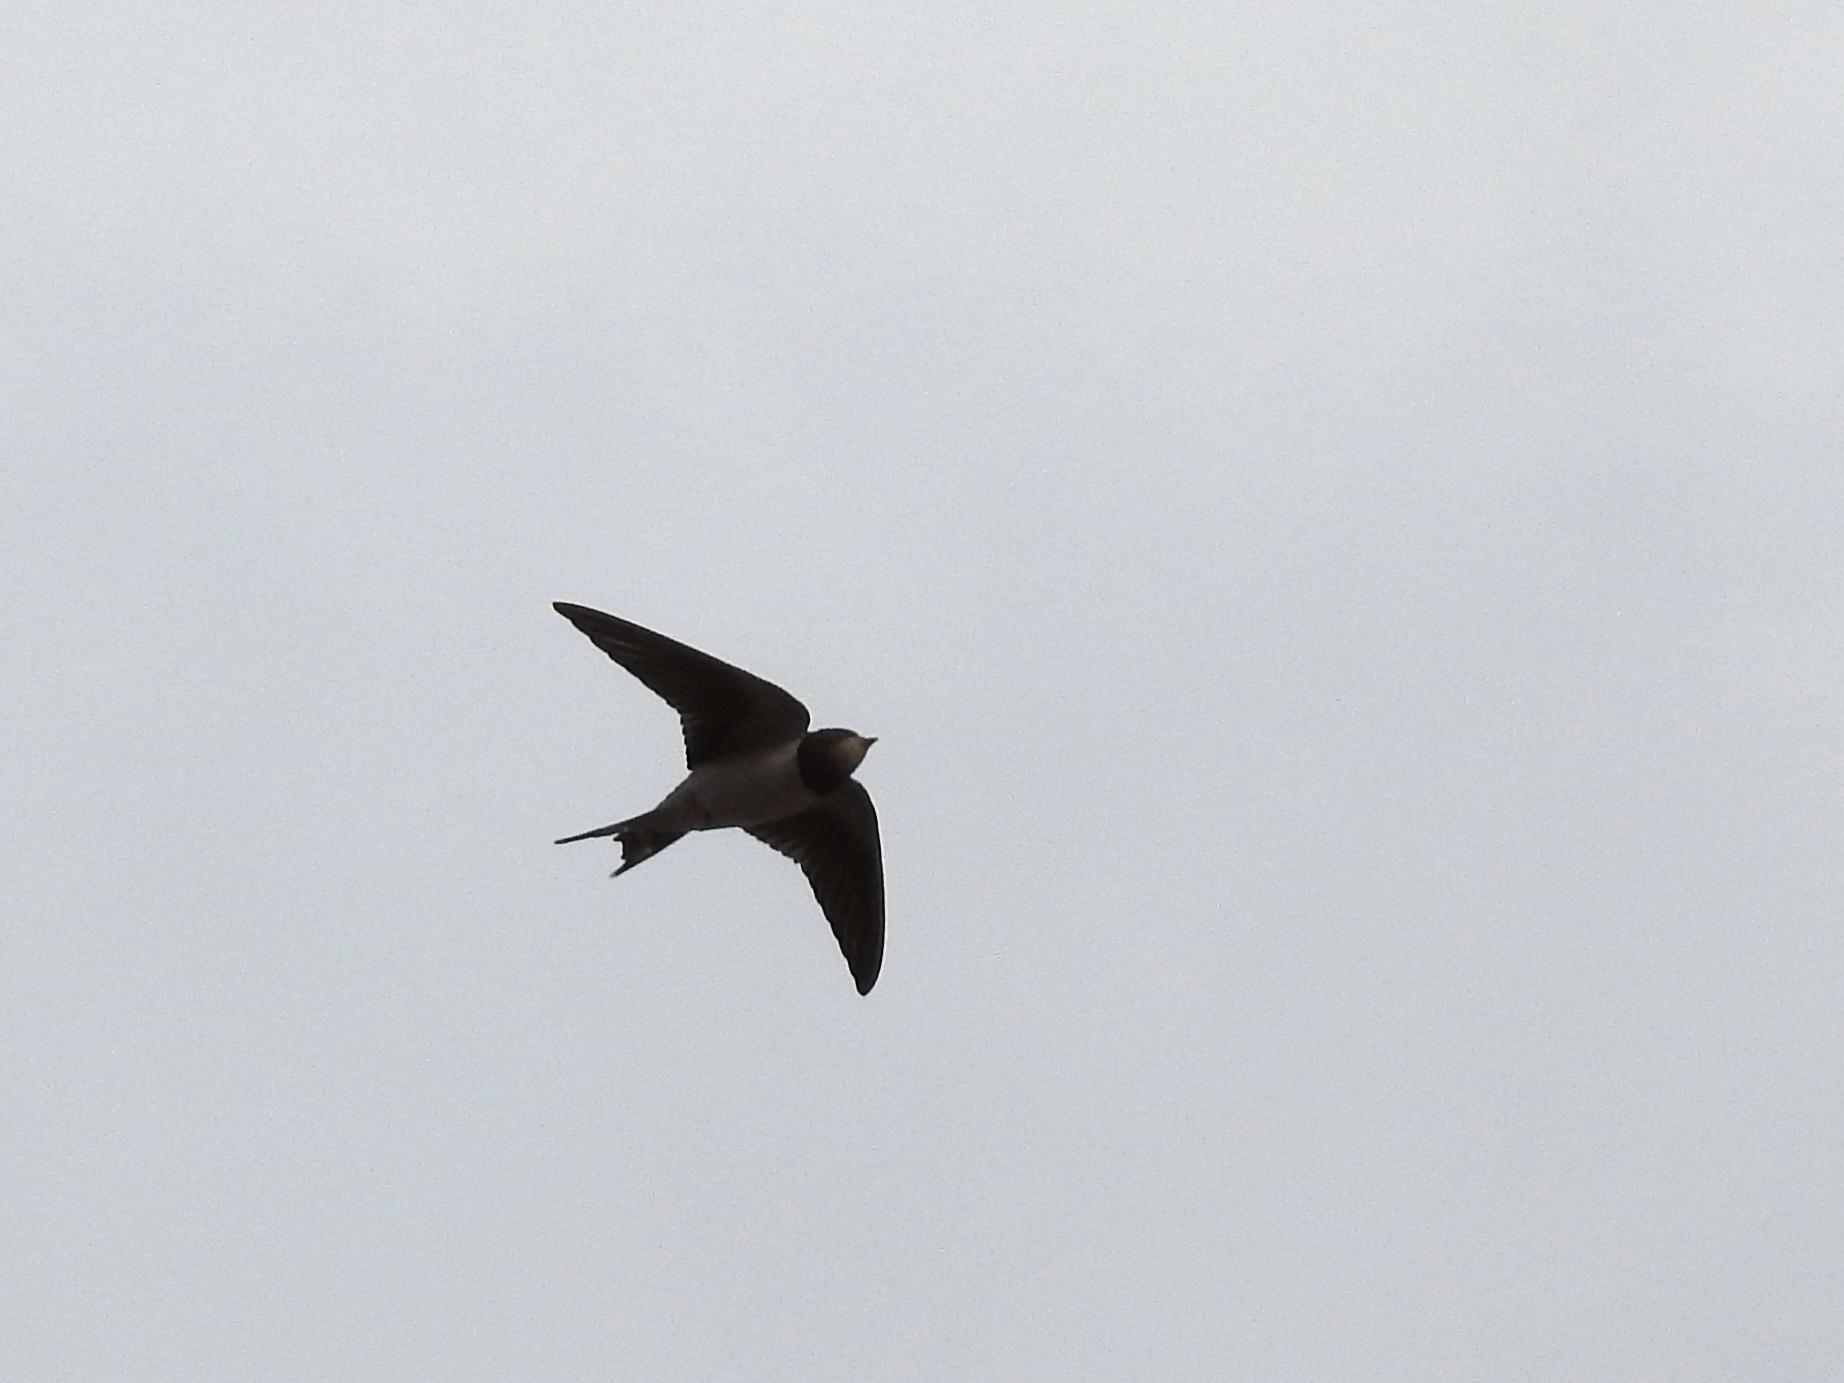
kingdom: Animalia
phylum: Chordata
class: Aves
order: Passeriformes
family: Hirundinidae
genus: Hirundo
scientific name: Hirundo rustica
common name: Barn swallow
